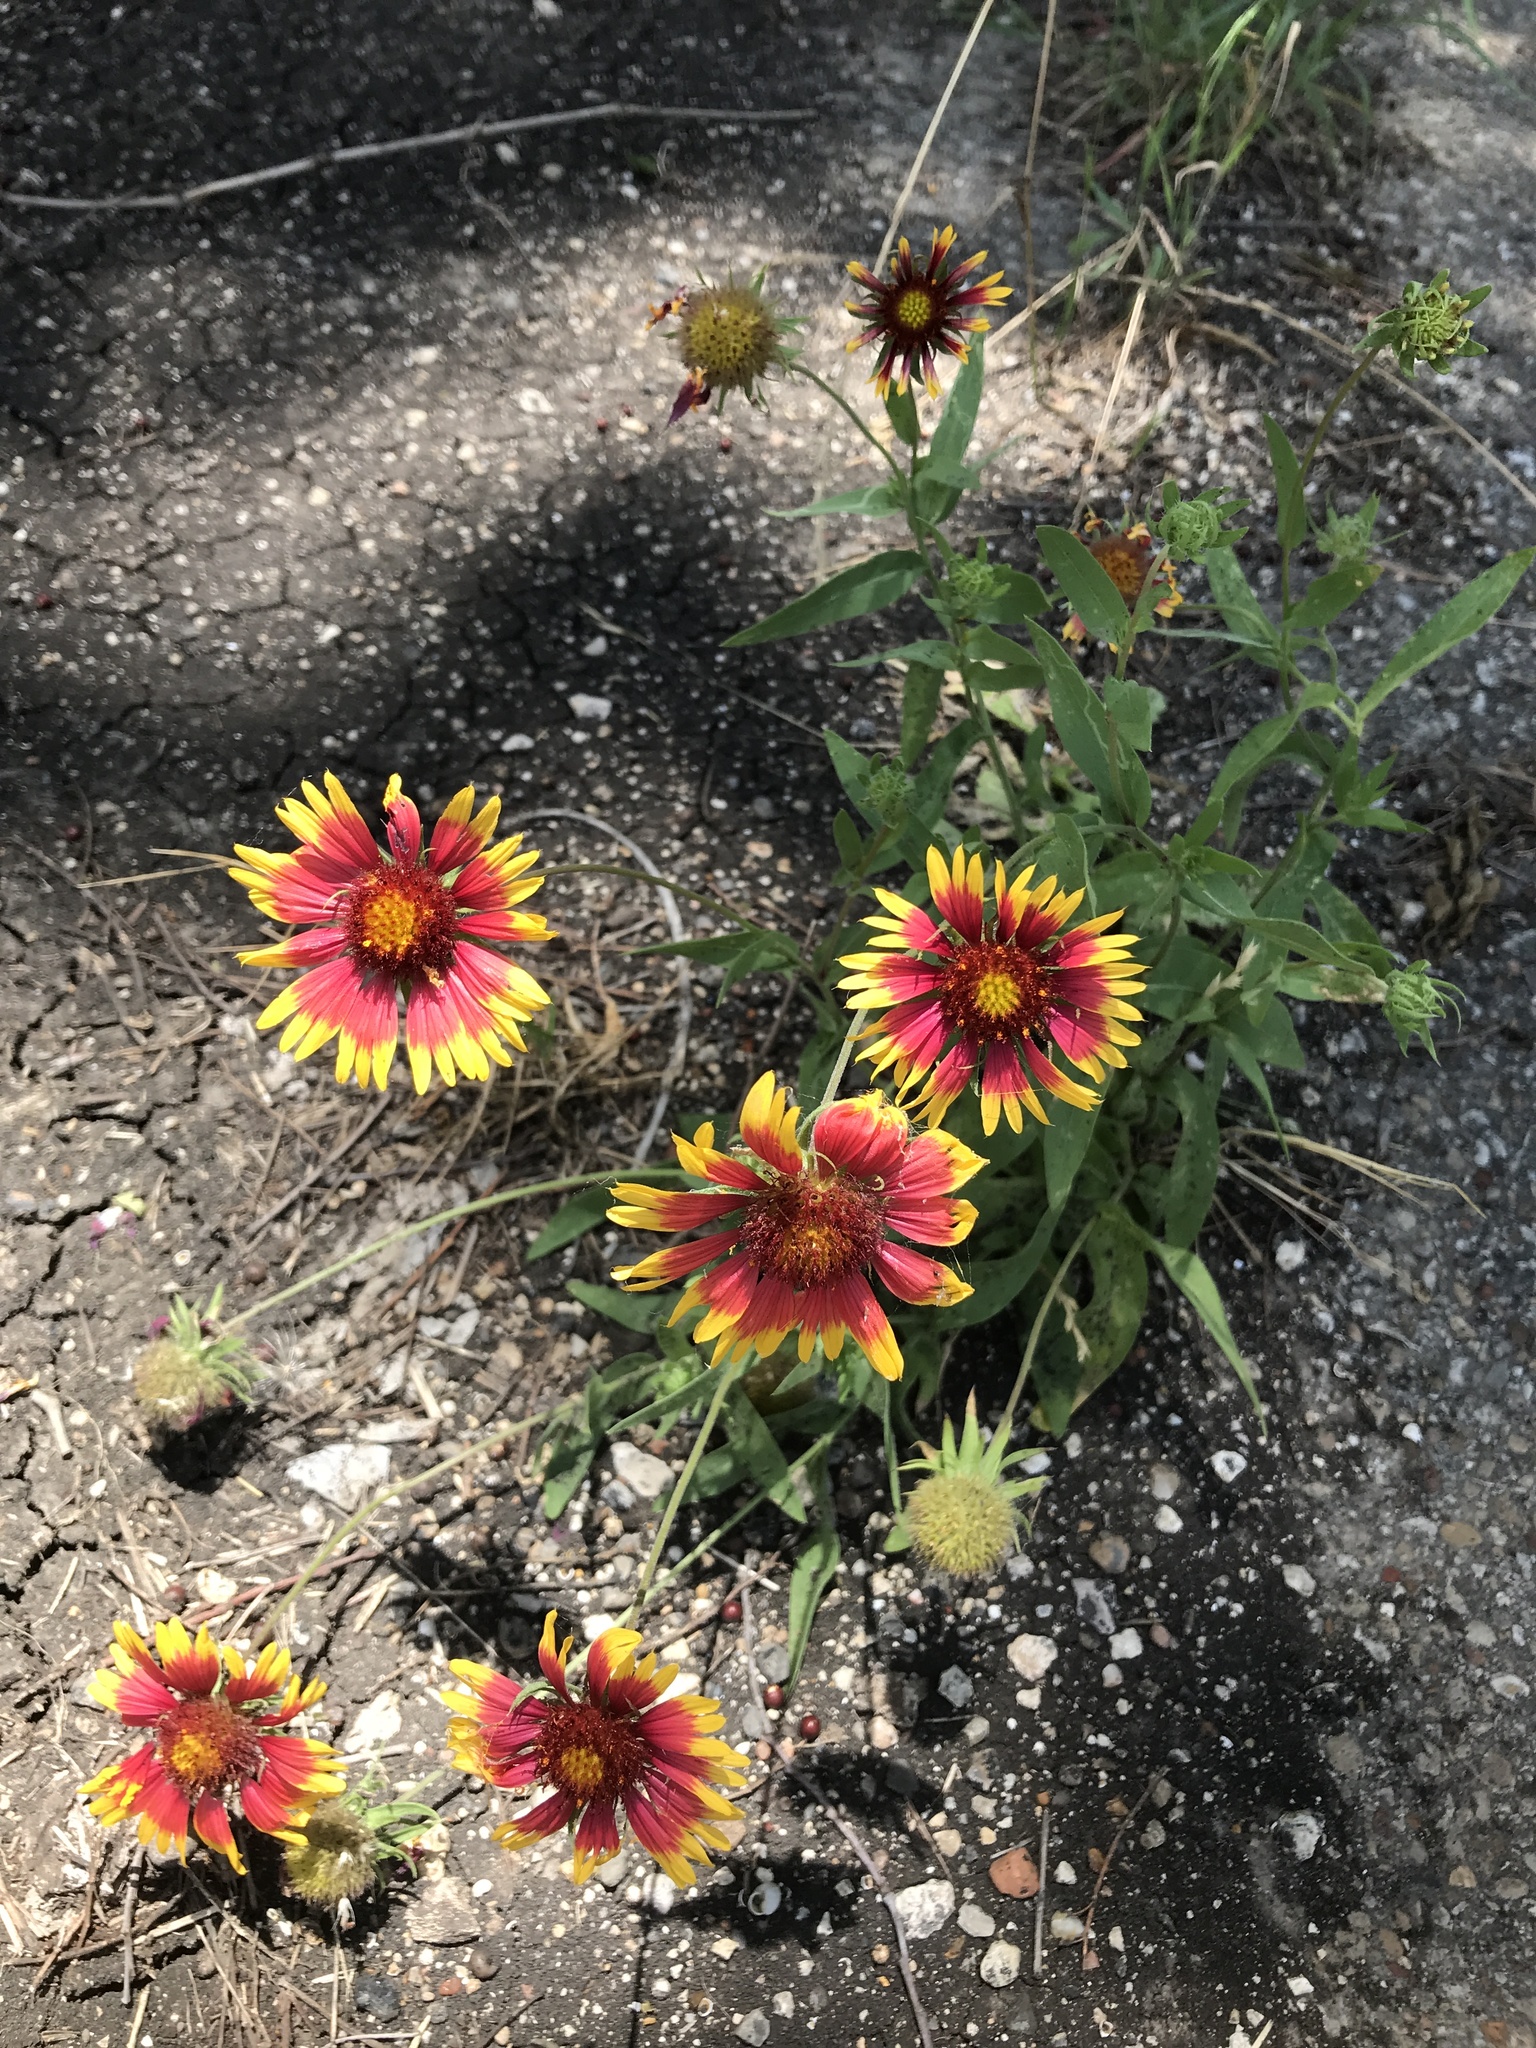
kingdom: Plantae
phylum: Tracheophyta
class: Magnoliopsida
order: Asterales
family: Asteraceae
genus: Gaillardia
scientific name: Gaillardia pulchella
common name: Firewheel
